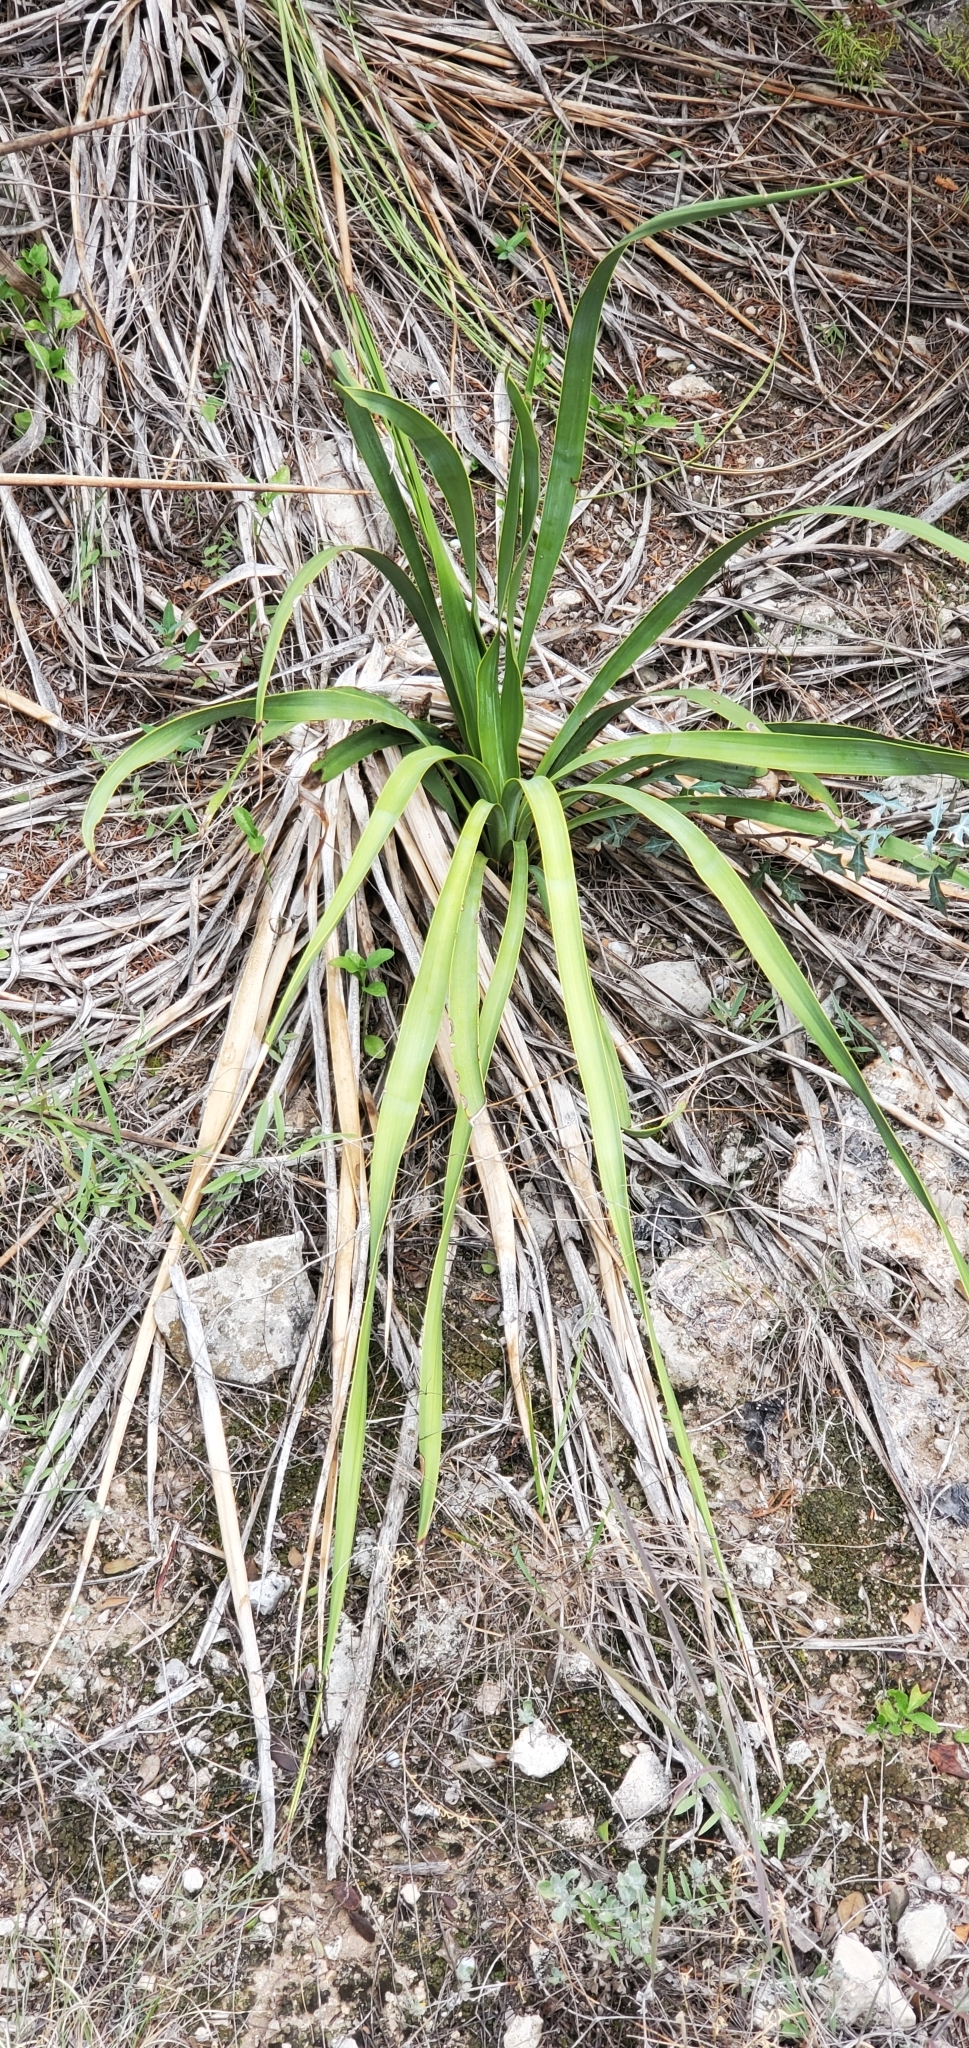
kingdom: Plantae
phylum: Tracheophyta
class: Liliopsida
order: Asparagales
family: Asparagaceae
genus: Yucca
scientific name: Yucca rupicola
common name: Twisted-leaf spanish-dagger
